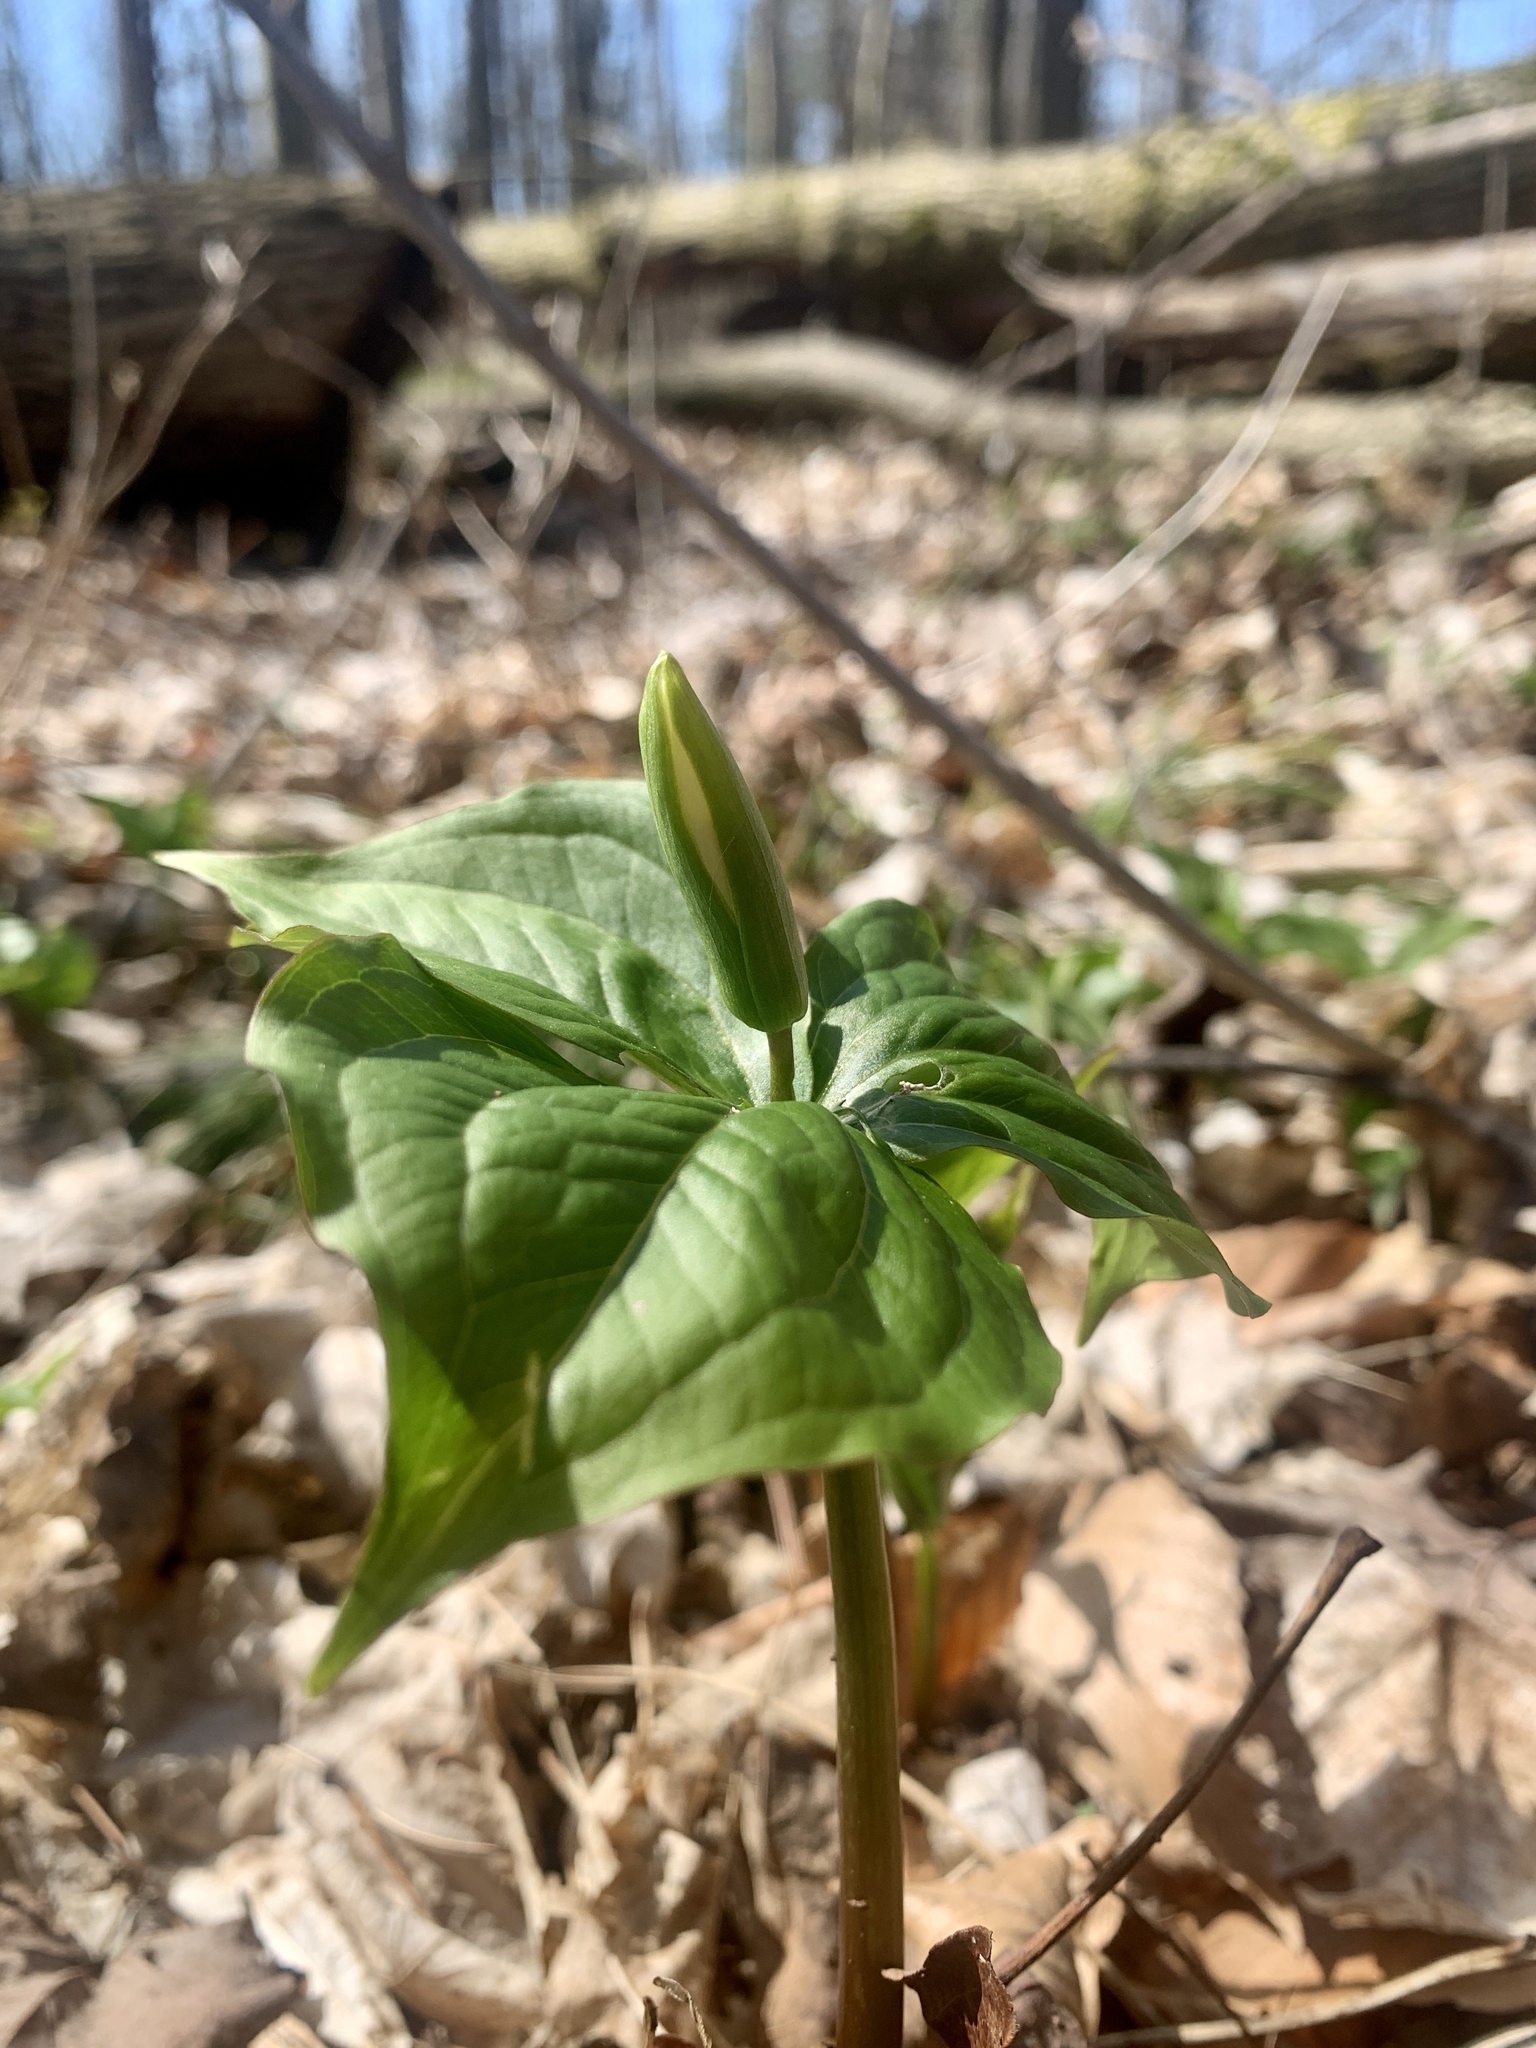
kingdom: Plantae
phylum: Tracheophyta
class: Liliopsida
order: Liliales
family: Melanthiaceae
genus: Trillium
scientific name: Trillium grandiflorum
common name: Great white trillium
